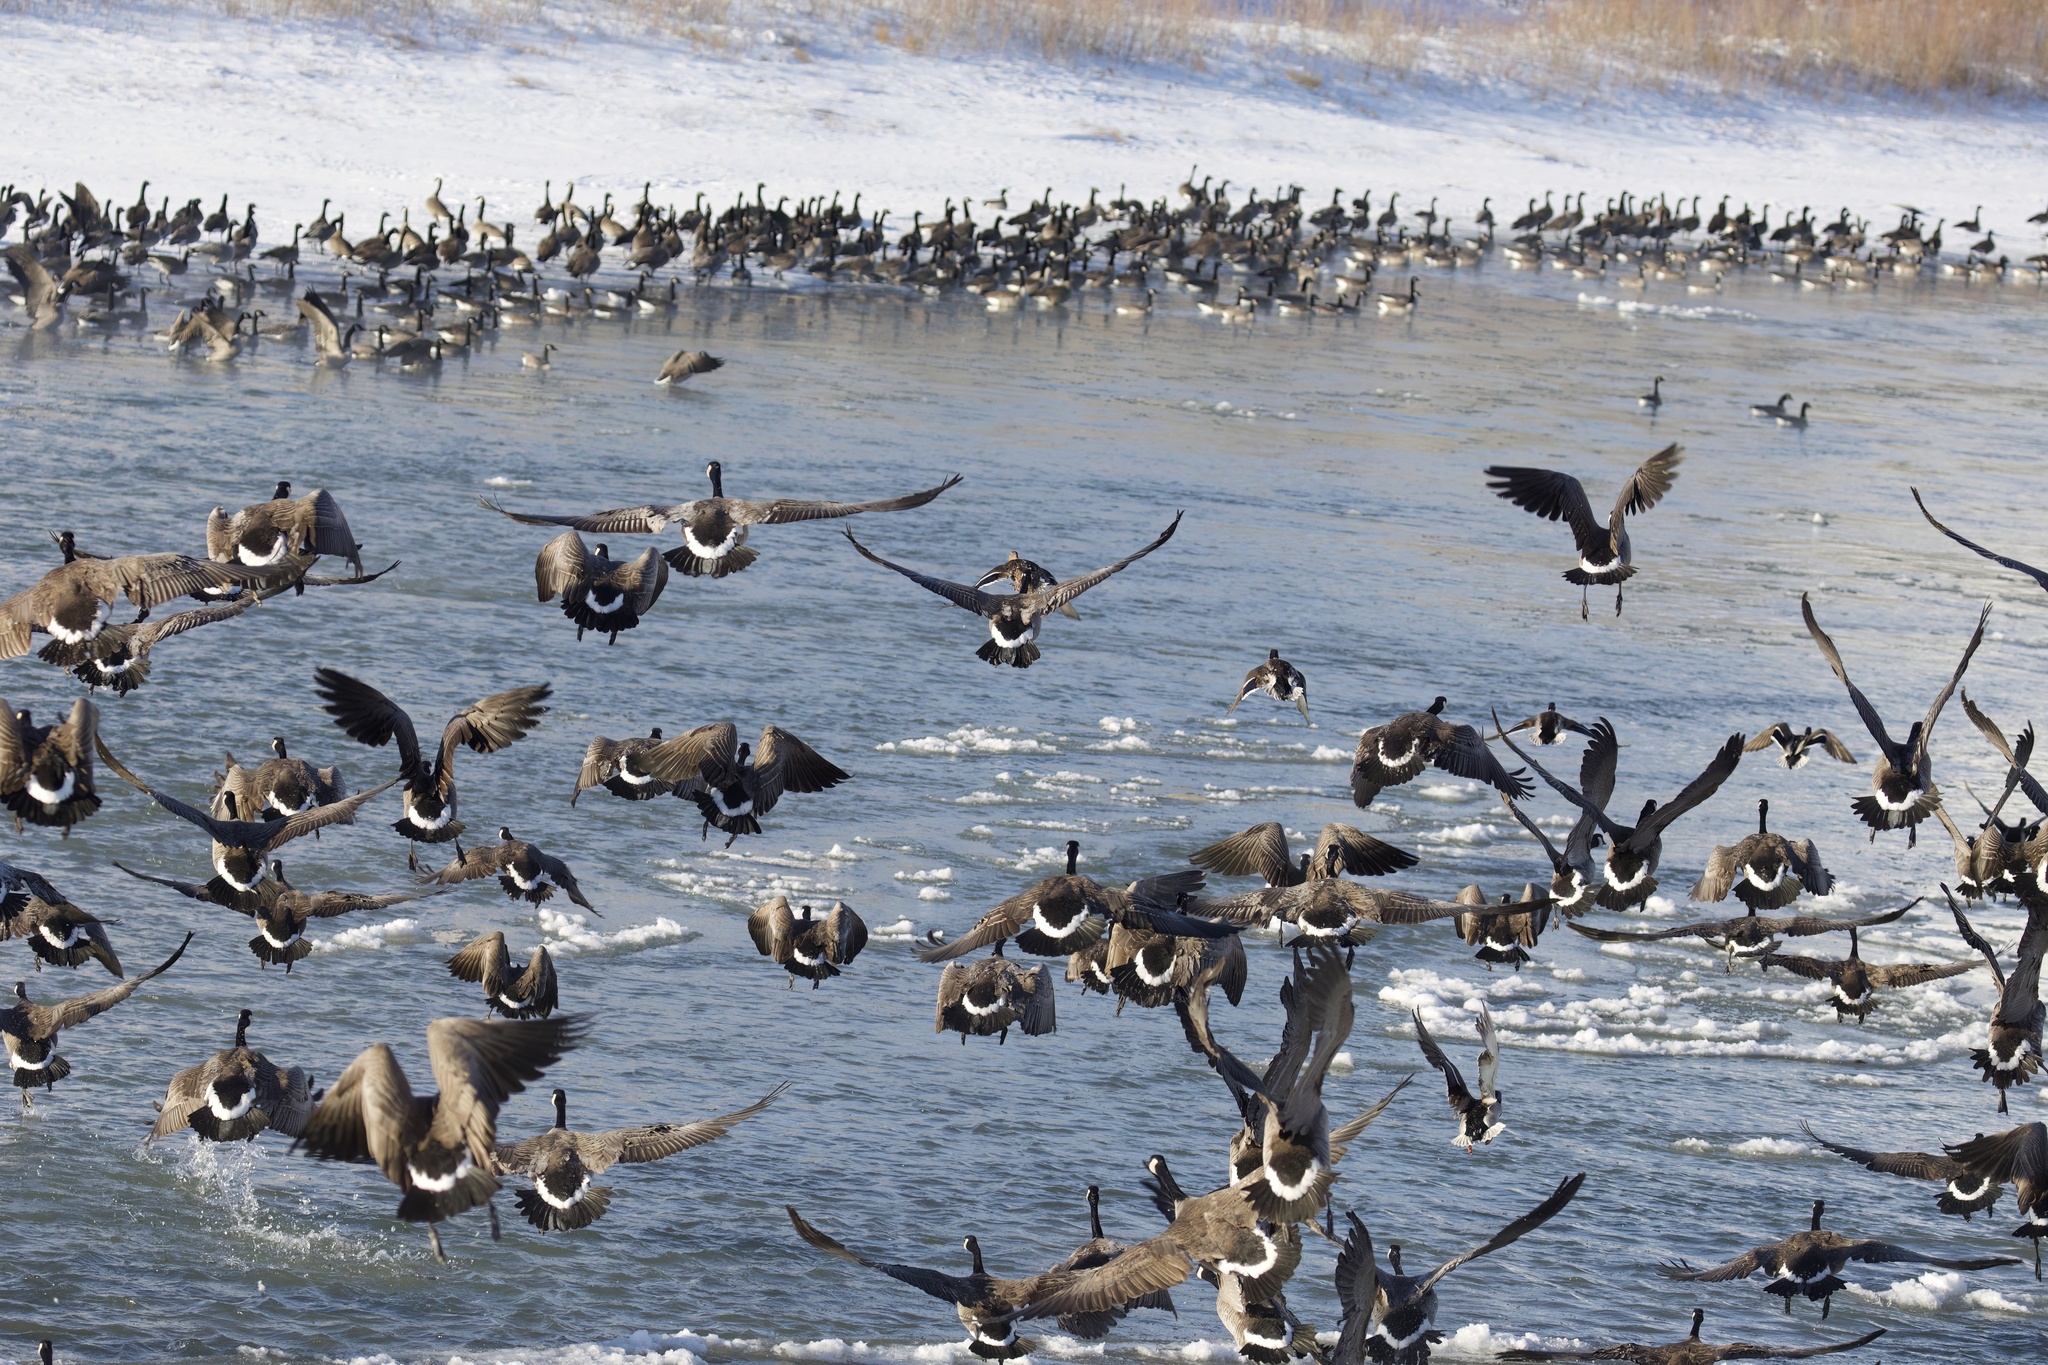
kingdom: Animalia
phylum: Chordata
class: Aves
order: Anseriformes
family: Anatidae
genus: Branta
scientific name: Branta canadensis
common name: Canada goose
